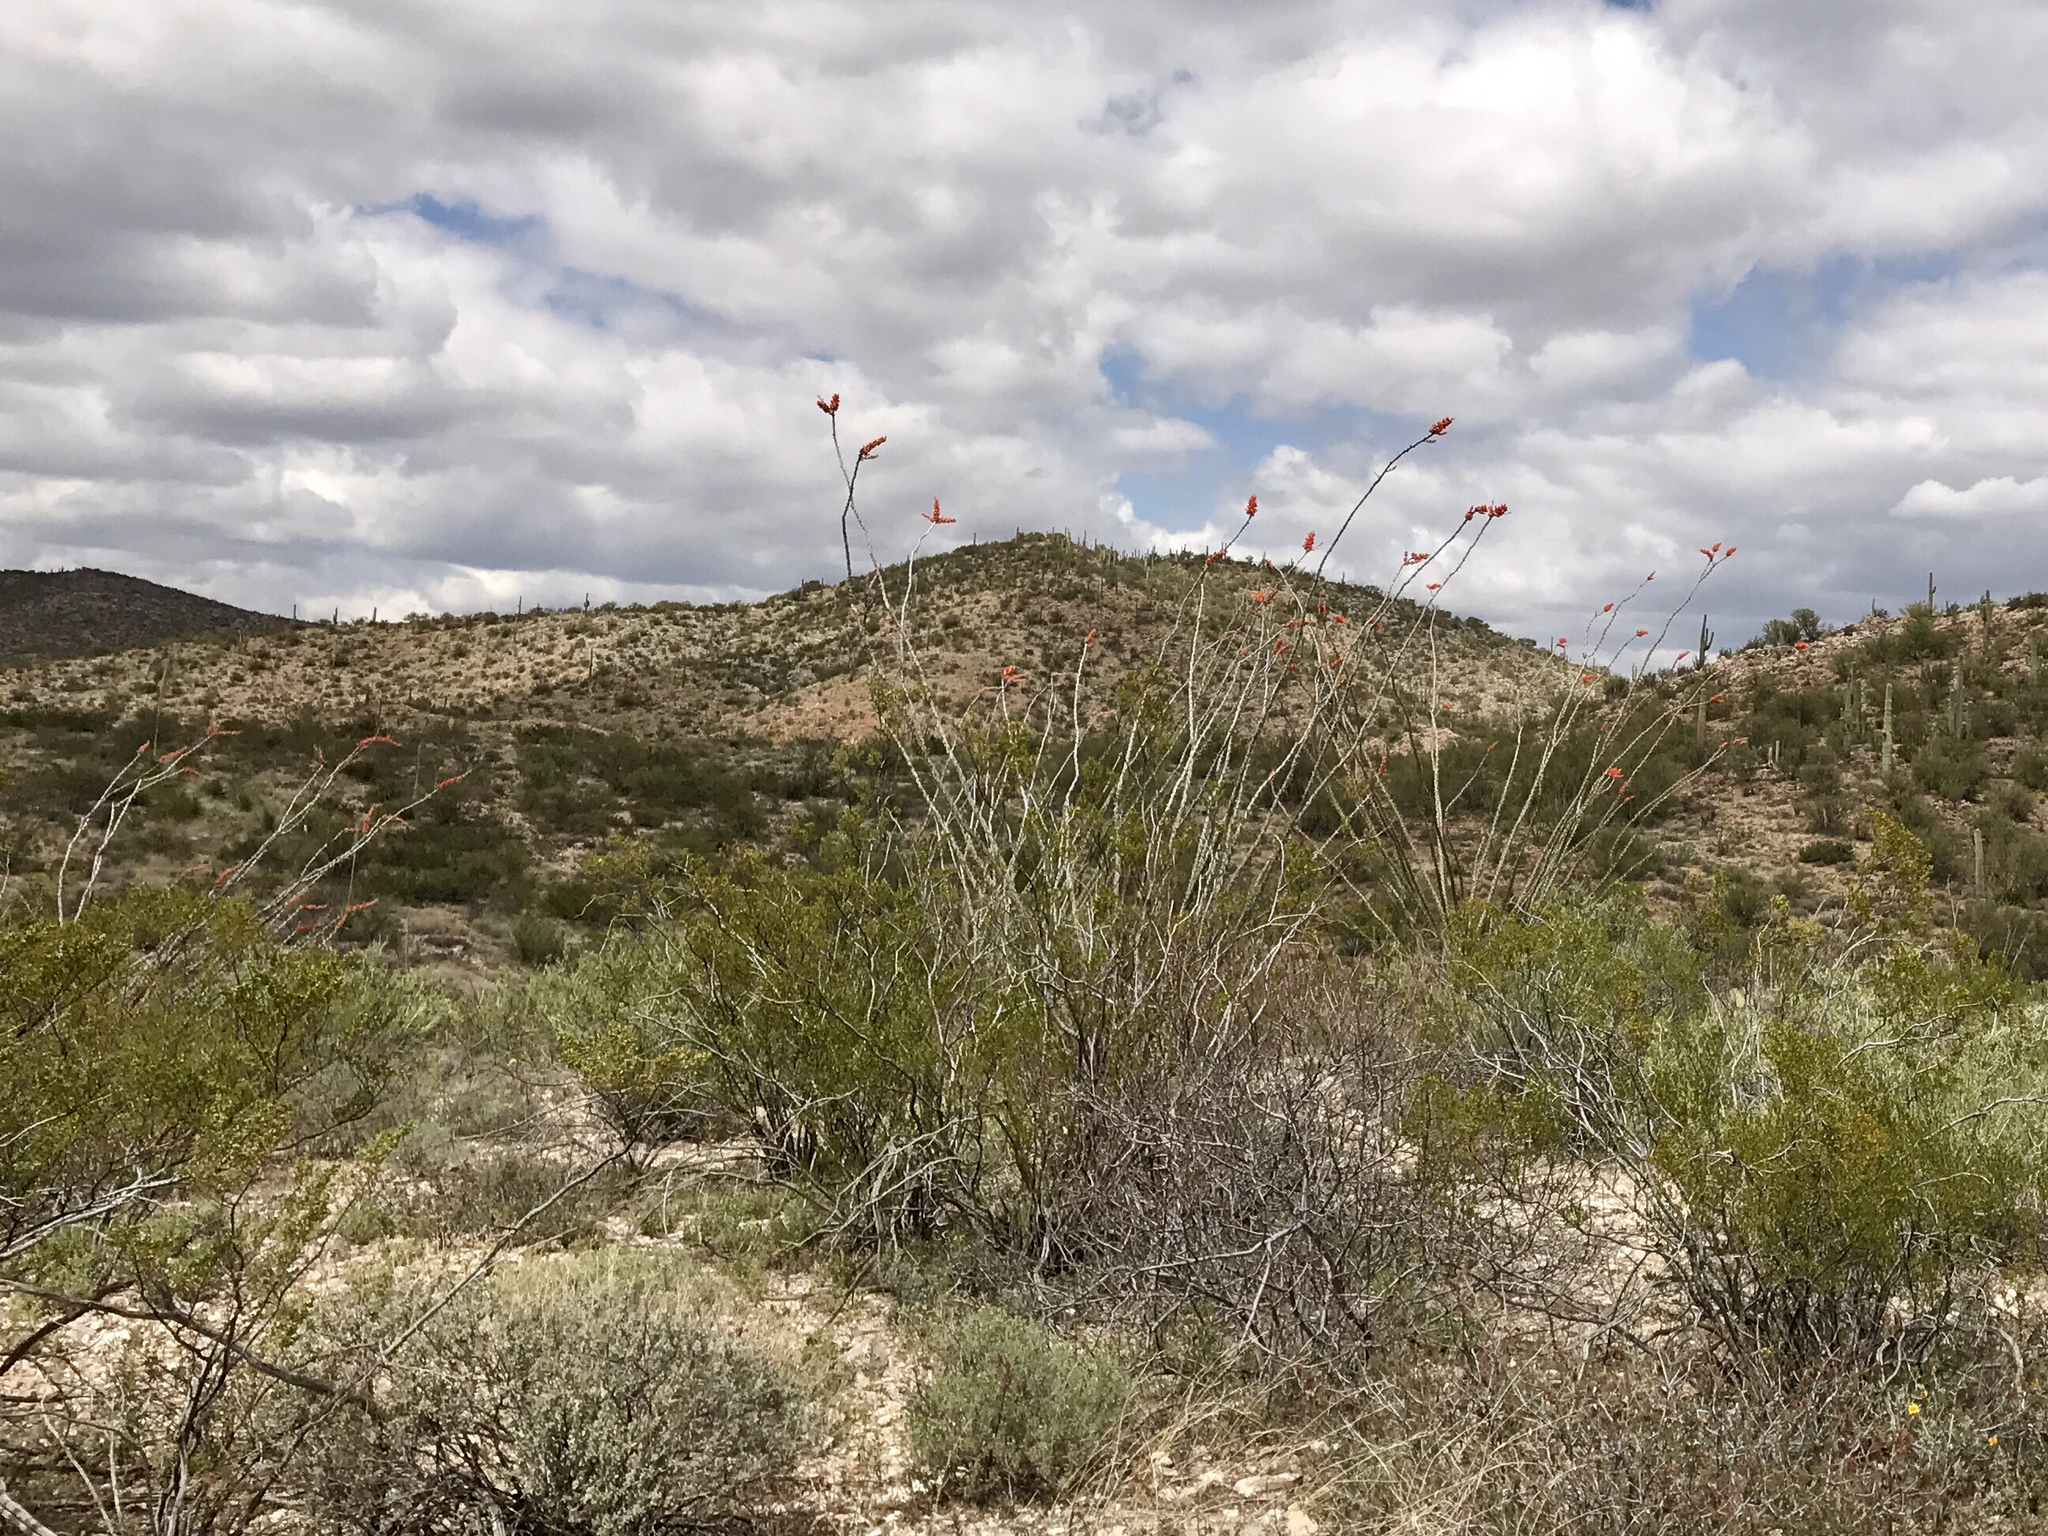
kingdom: Plantae
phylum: Tracheophyta
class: Magnoliopsida
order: Ericales
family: Fouquieriaceae
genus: Fouquieria
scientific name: Fouquieria splendens
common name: Vine-cactus
